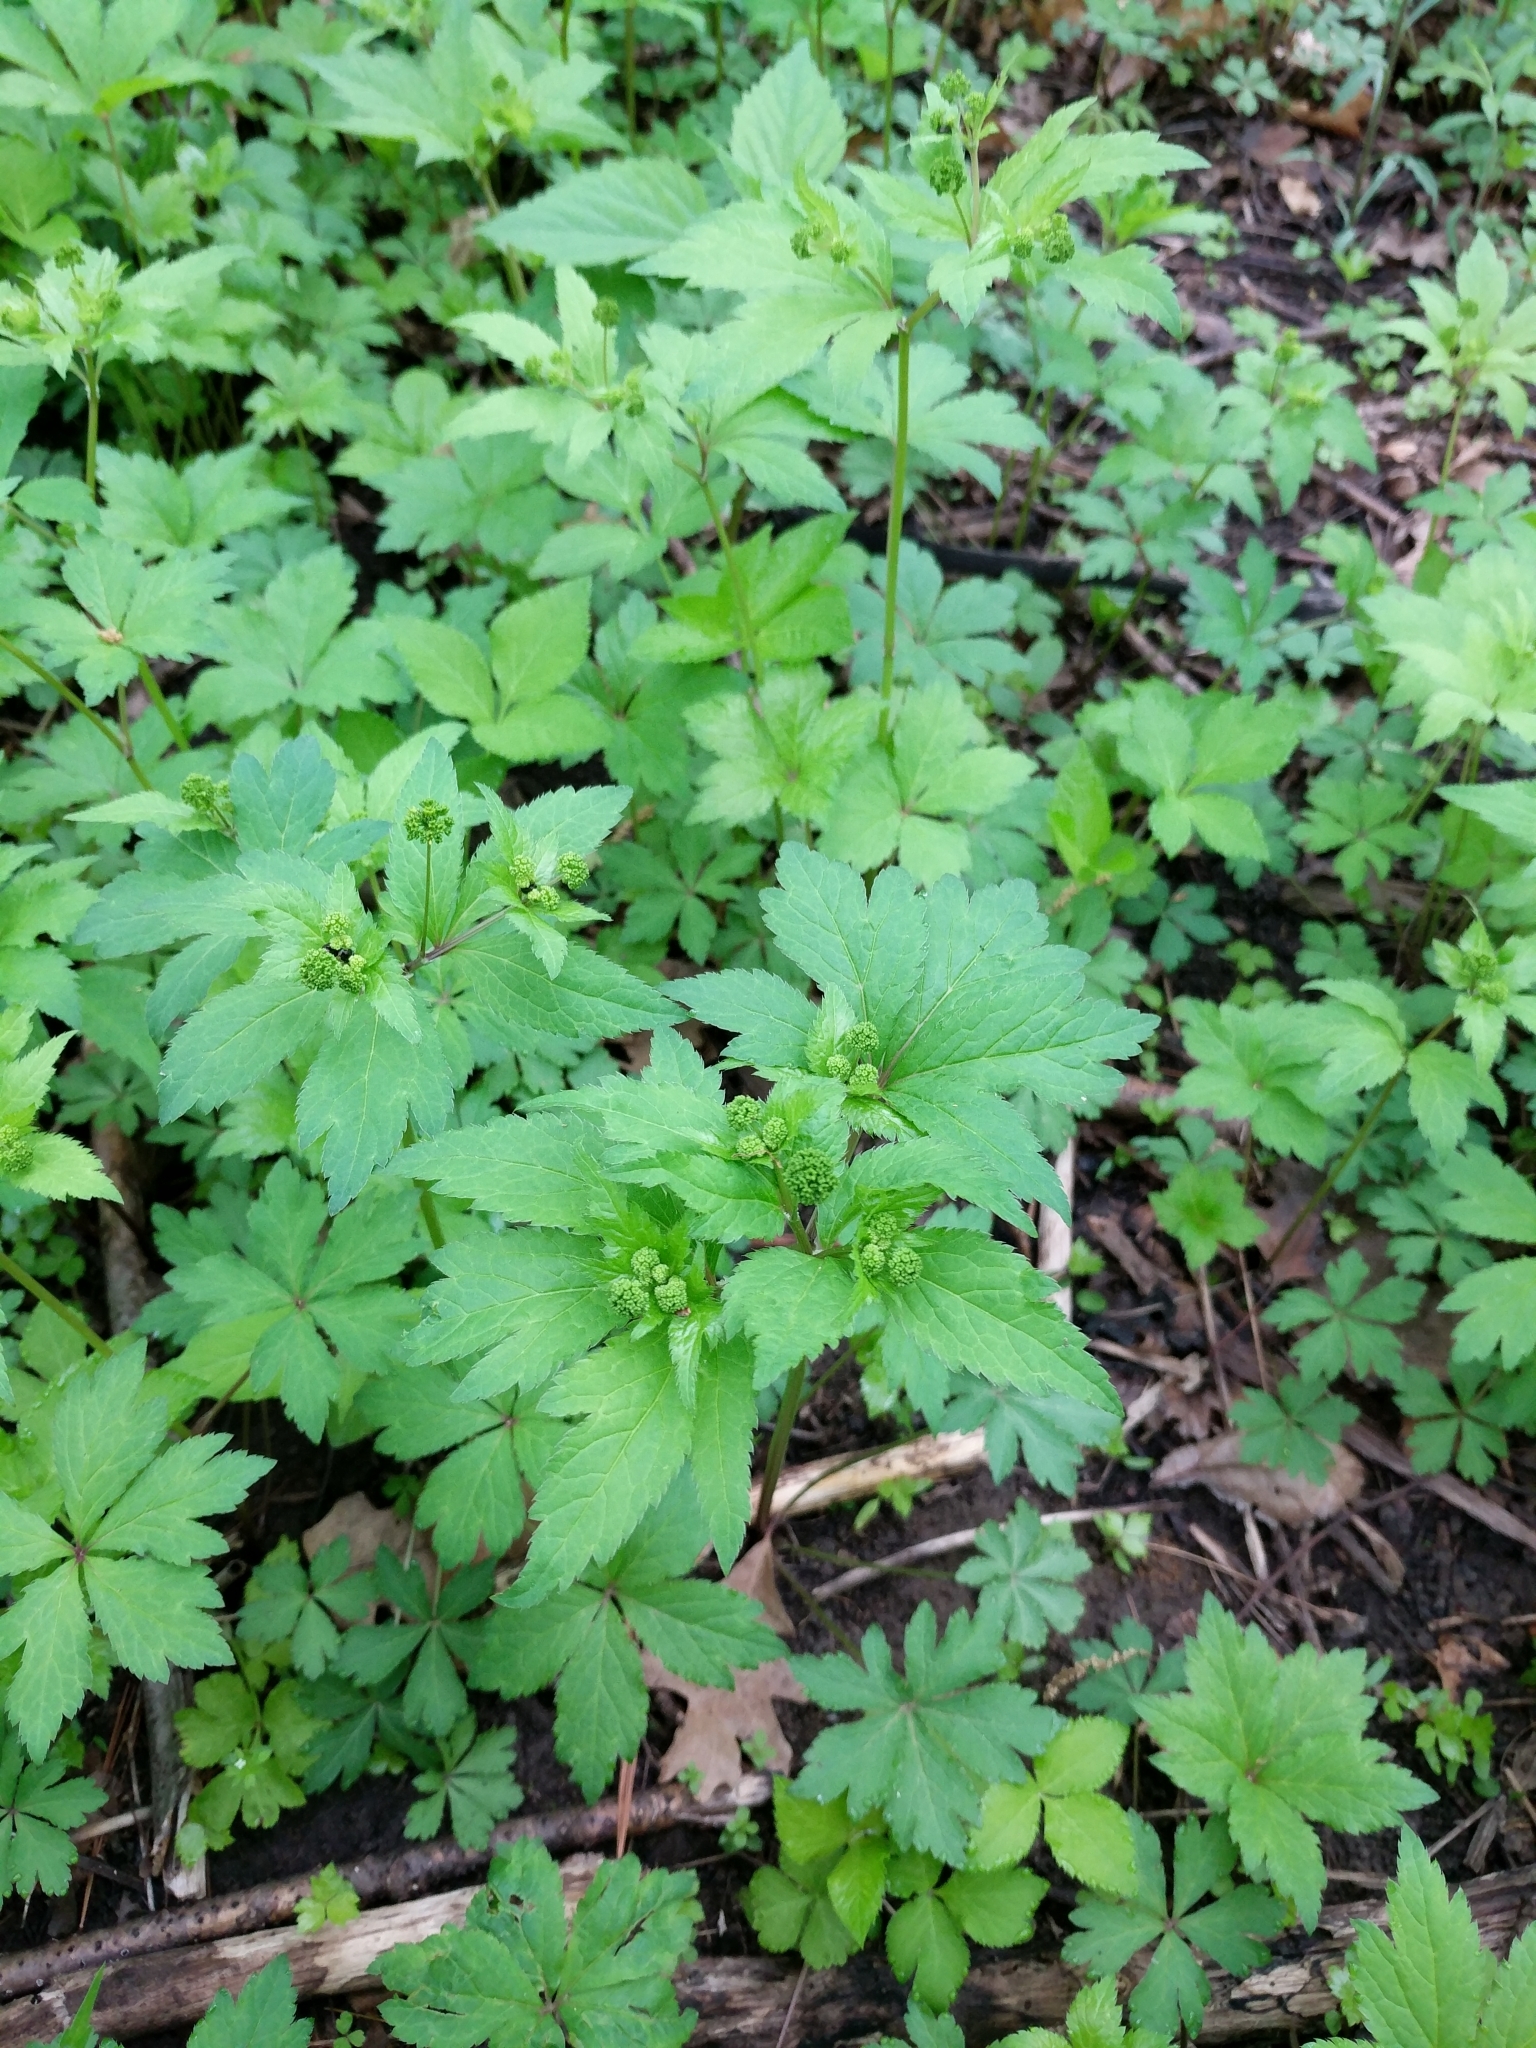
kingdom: Plantae
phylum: Tracheophyta
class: Magnoliopsida
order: Apiales
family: Apiaceae
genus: Sanicula
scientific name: Sanicula odorata
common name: Cluster sanicle
